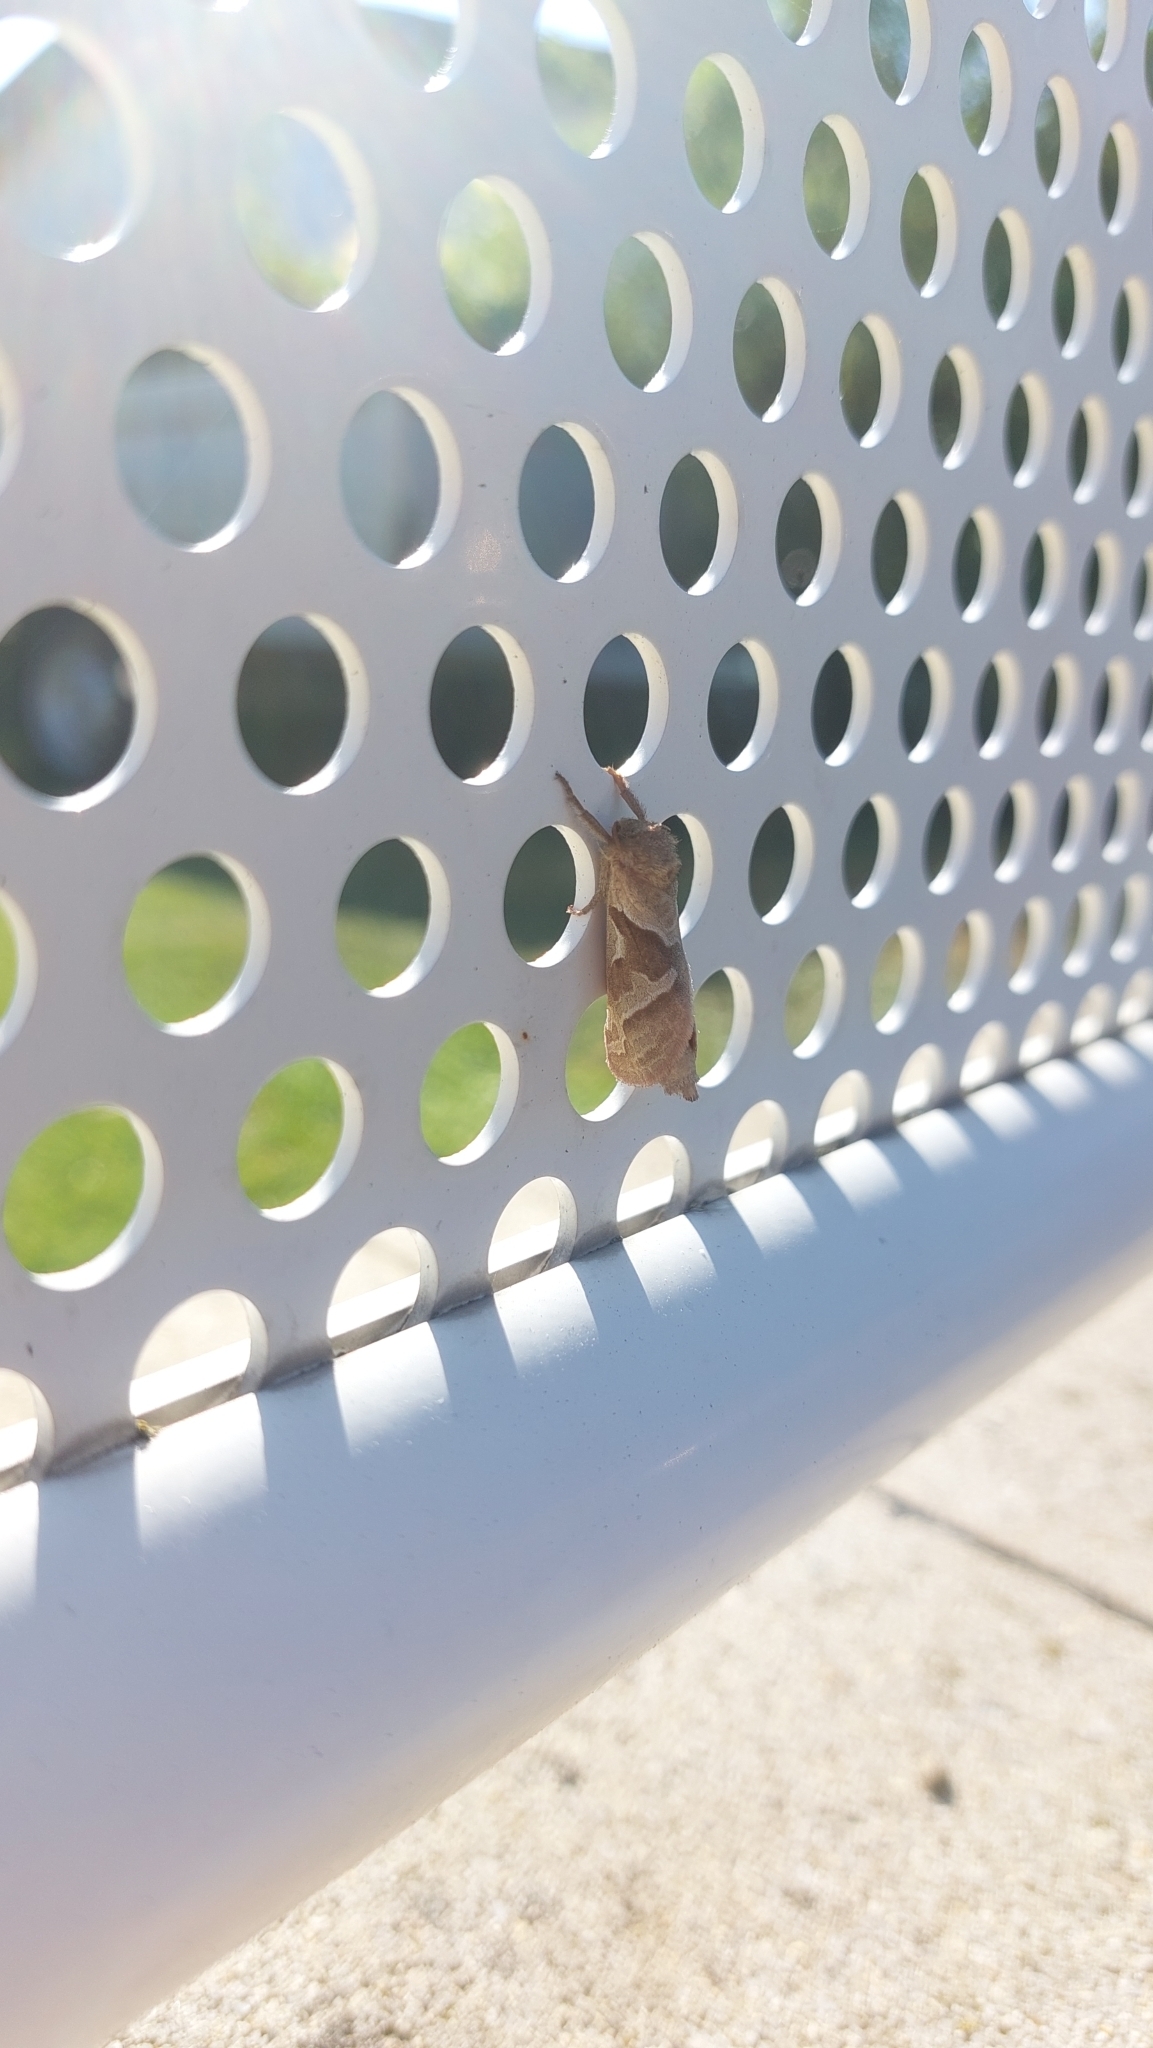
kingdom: Animalia
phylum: Arthropoda
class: Insecta
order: Lepidoptera
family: Hepialidae
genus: Triodia
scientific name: Triodia sylvina
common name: Orange swift
